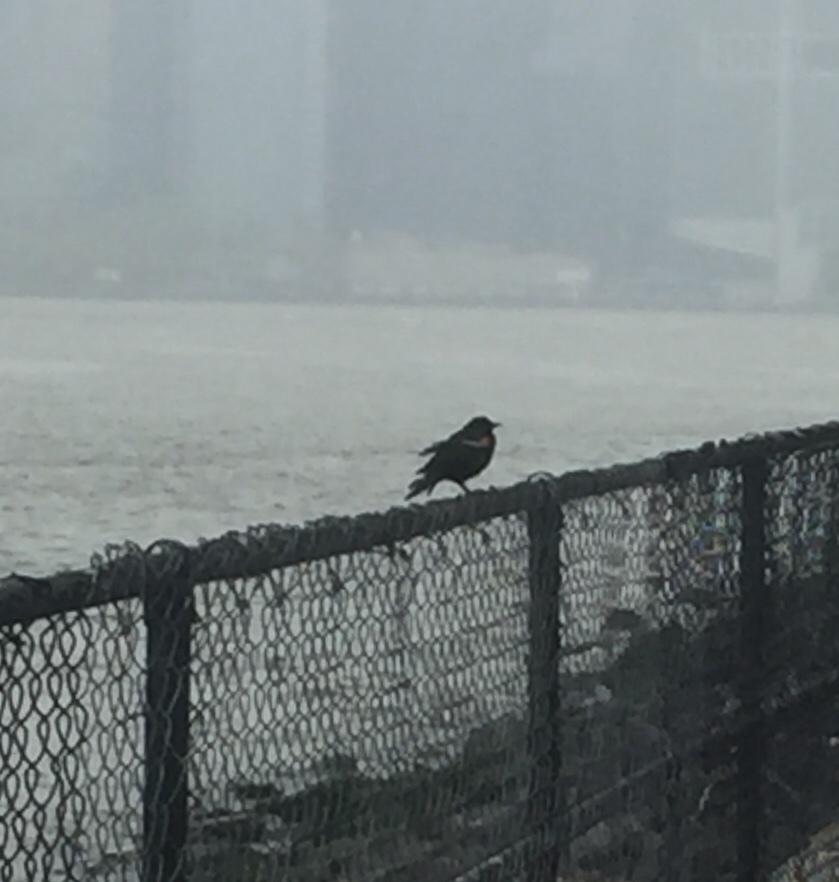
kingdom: Animalia
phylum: Chordata
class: Aves
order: Passeriformes
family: Icteridae
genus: Agelaius
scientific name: Agelaius phoeniceus
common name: Red-winged blackbird
